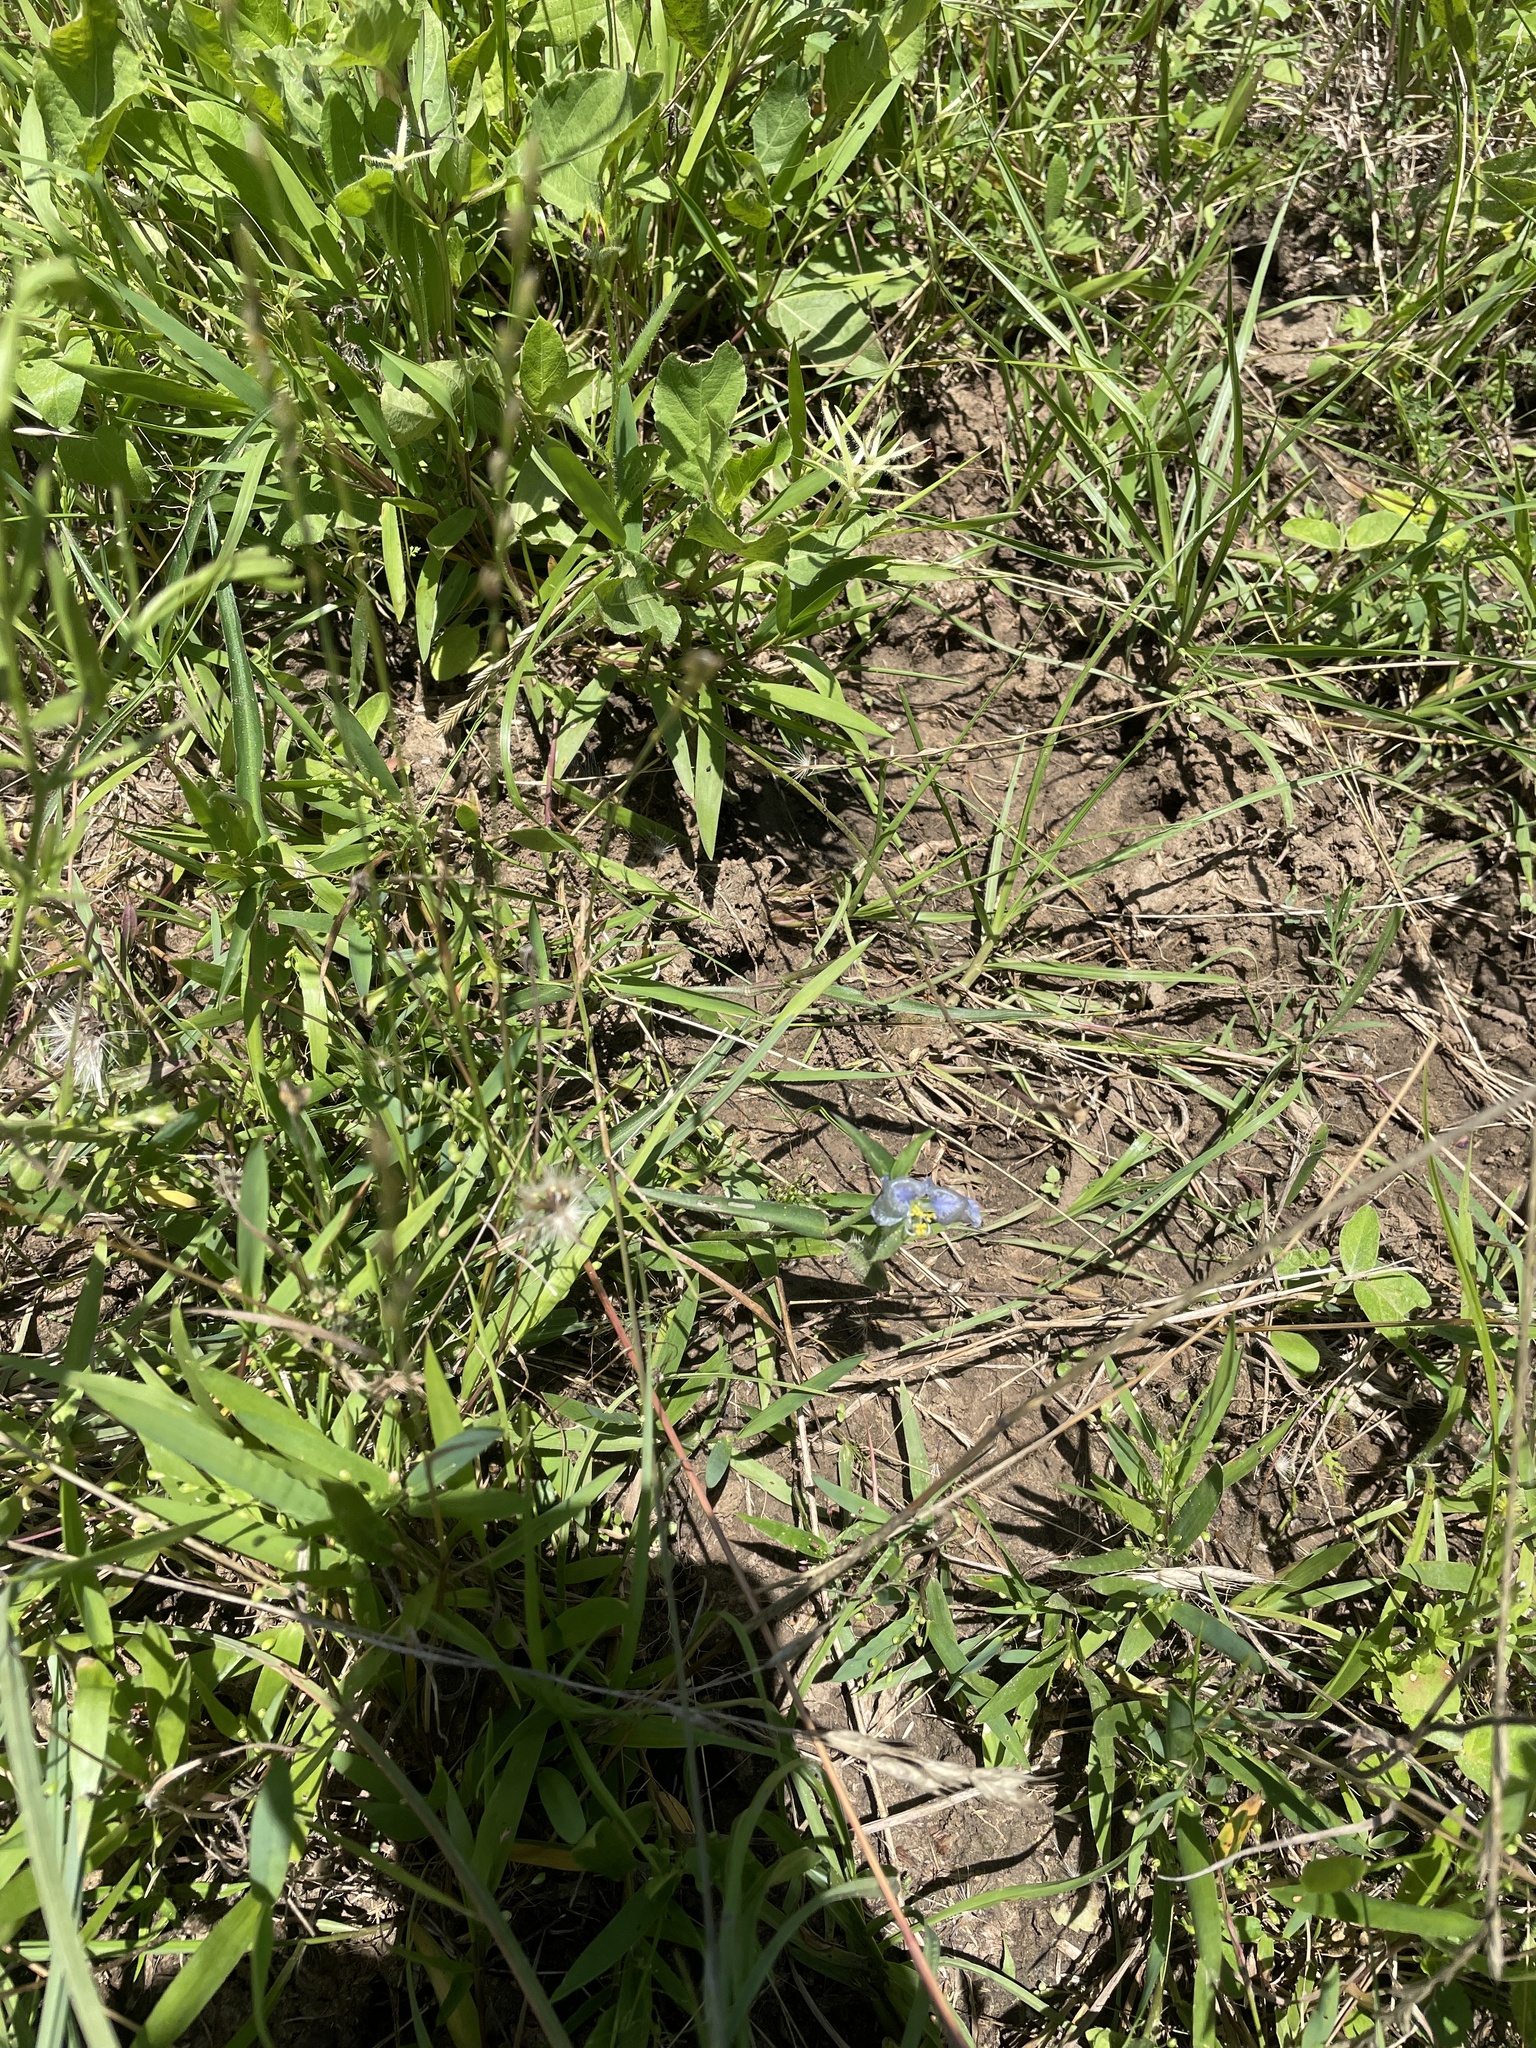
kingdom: Plantae
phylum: Tracheophyta
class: Liliopsida
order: Commelinales
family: Commelinaceae
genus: Commelina
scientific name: Commelina erecta
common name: Blousel blommetjie
